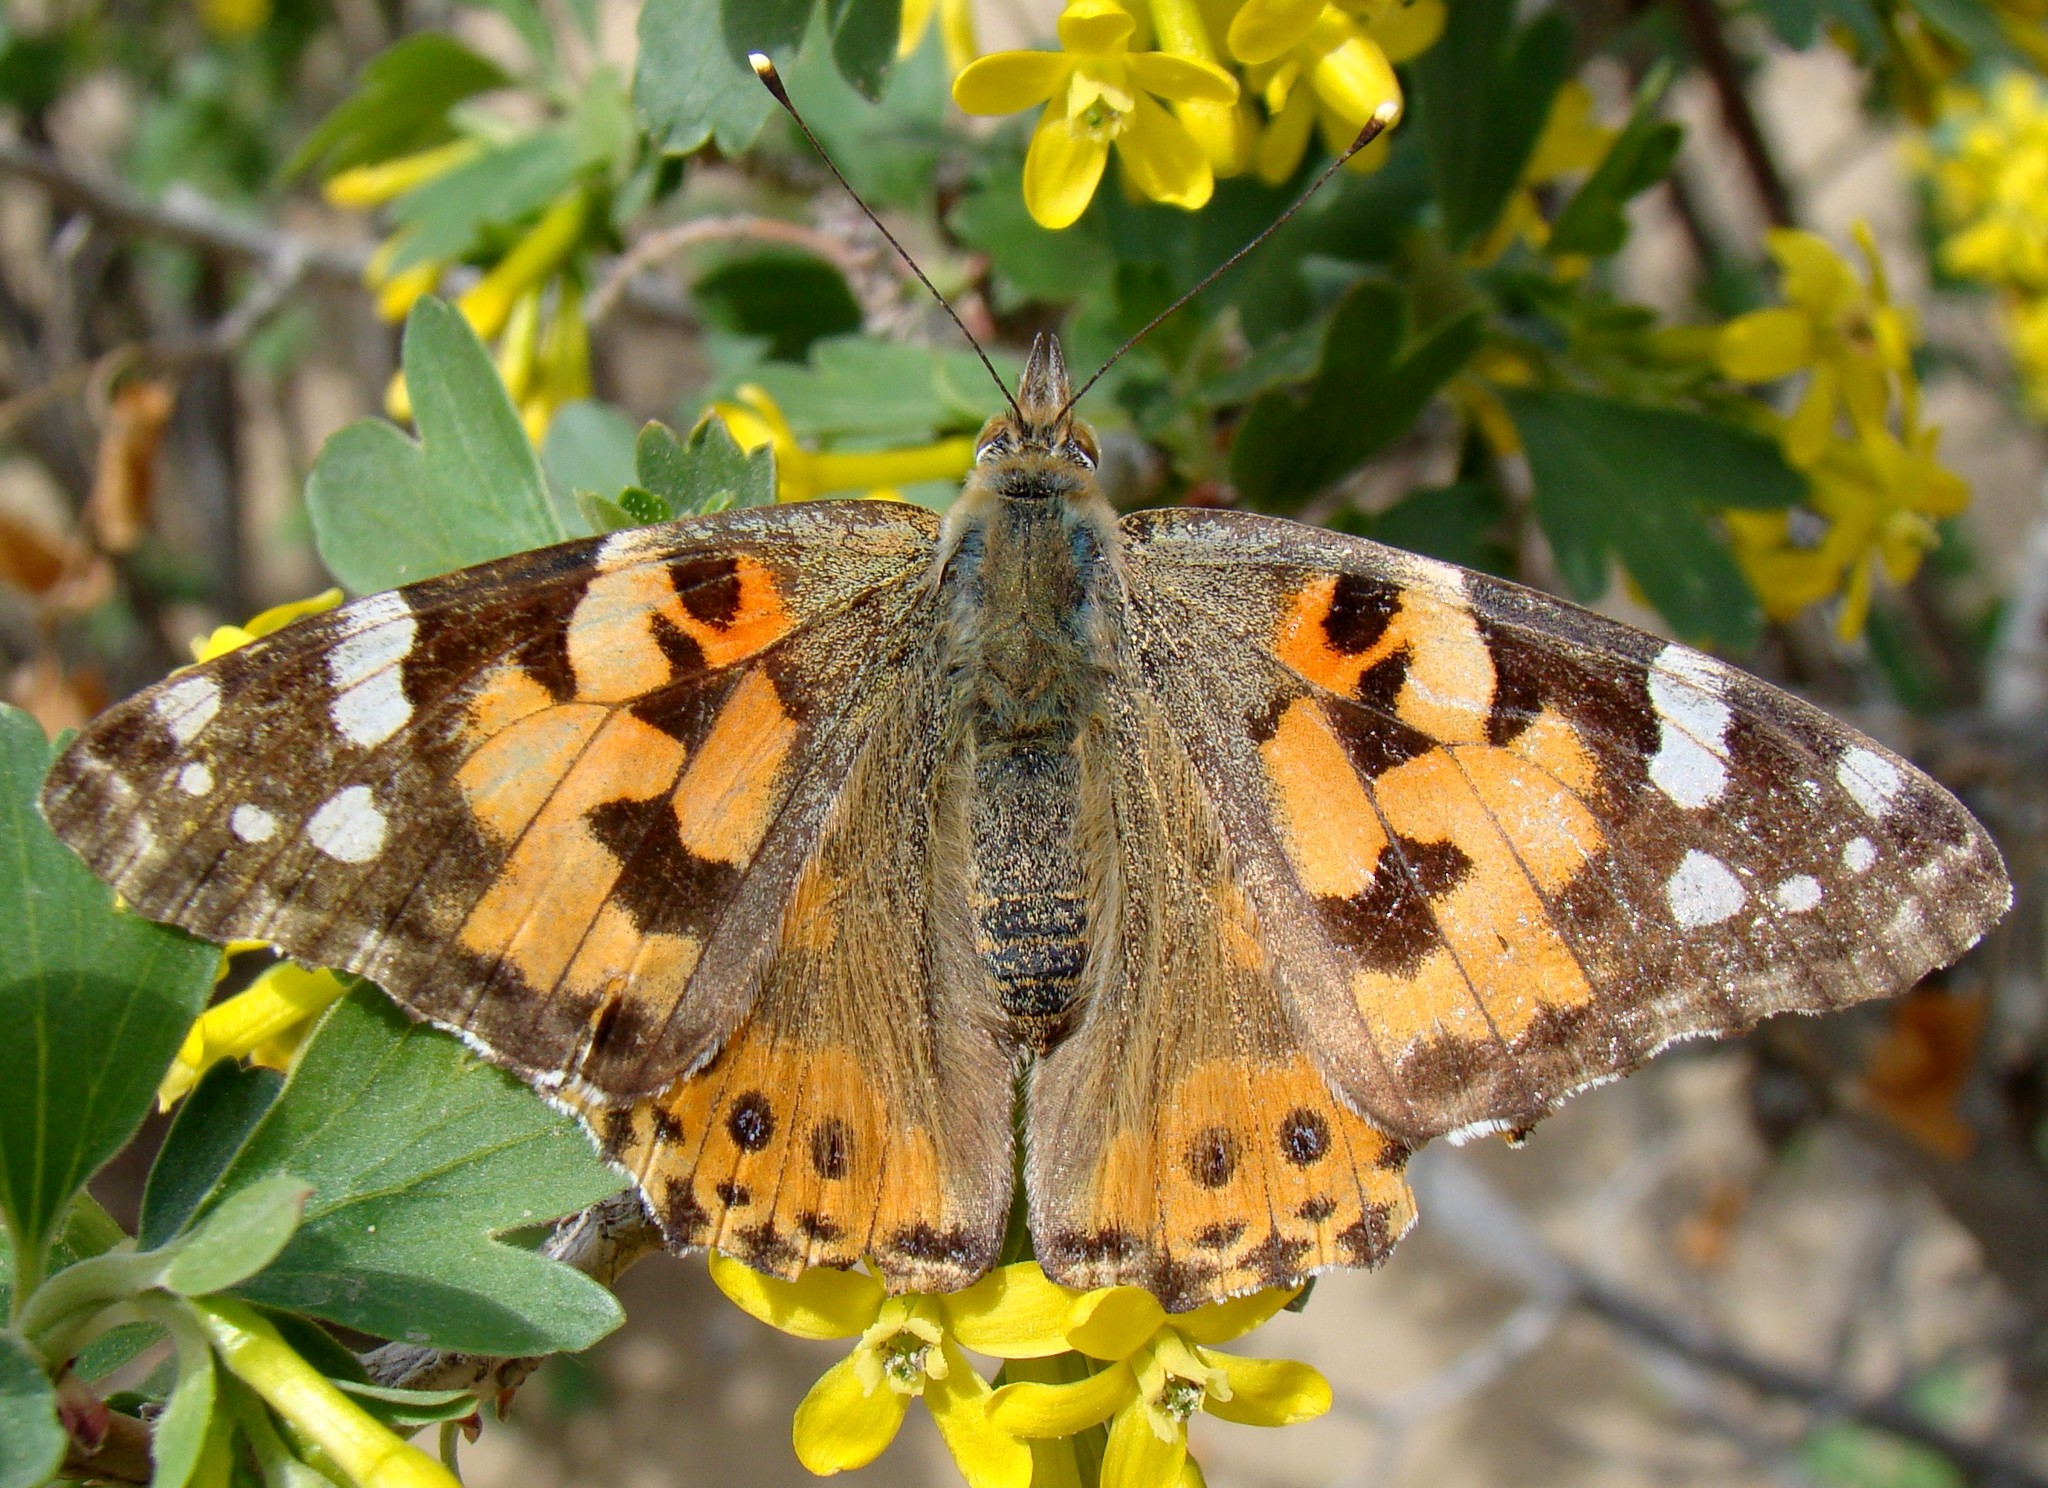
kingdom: Animalia
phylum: Arthropoda
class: Insecta
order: Lepidoptera
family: Nymphalidae
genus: Vanessa
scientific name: Vanessa cardui
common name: Painted lady
